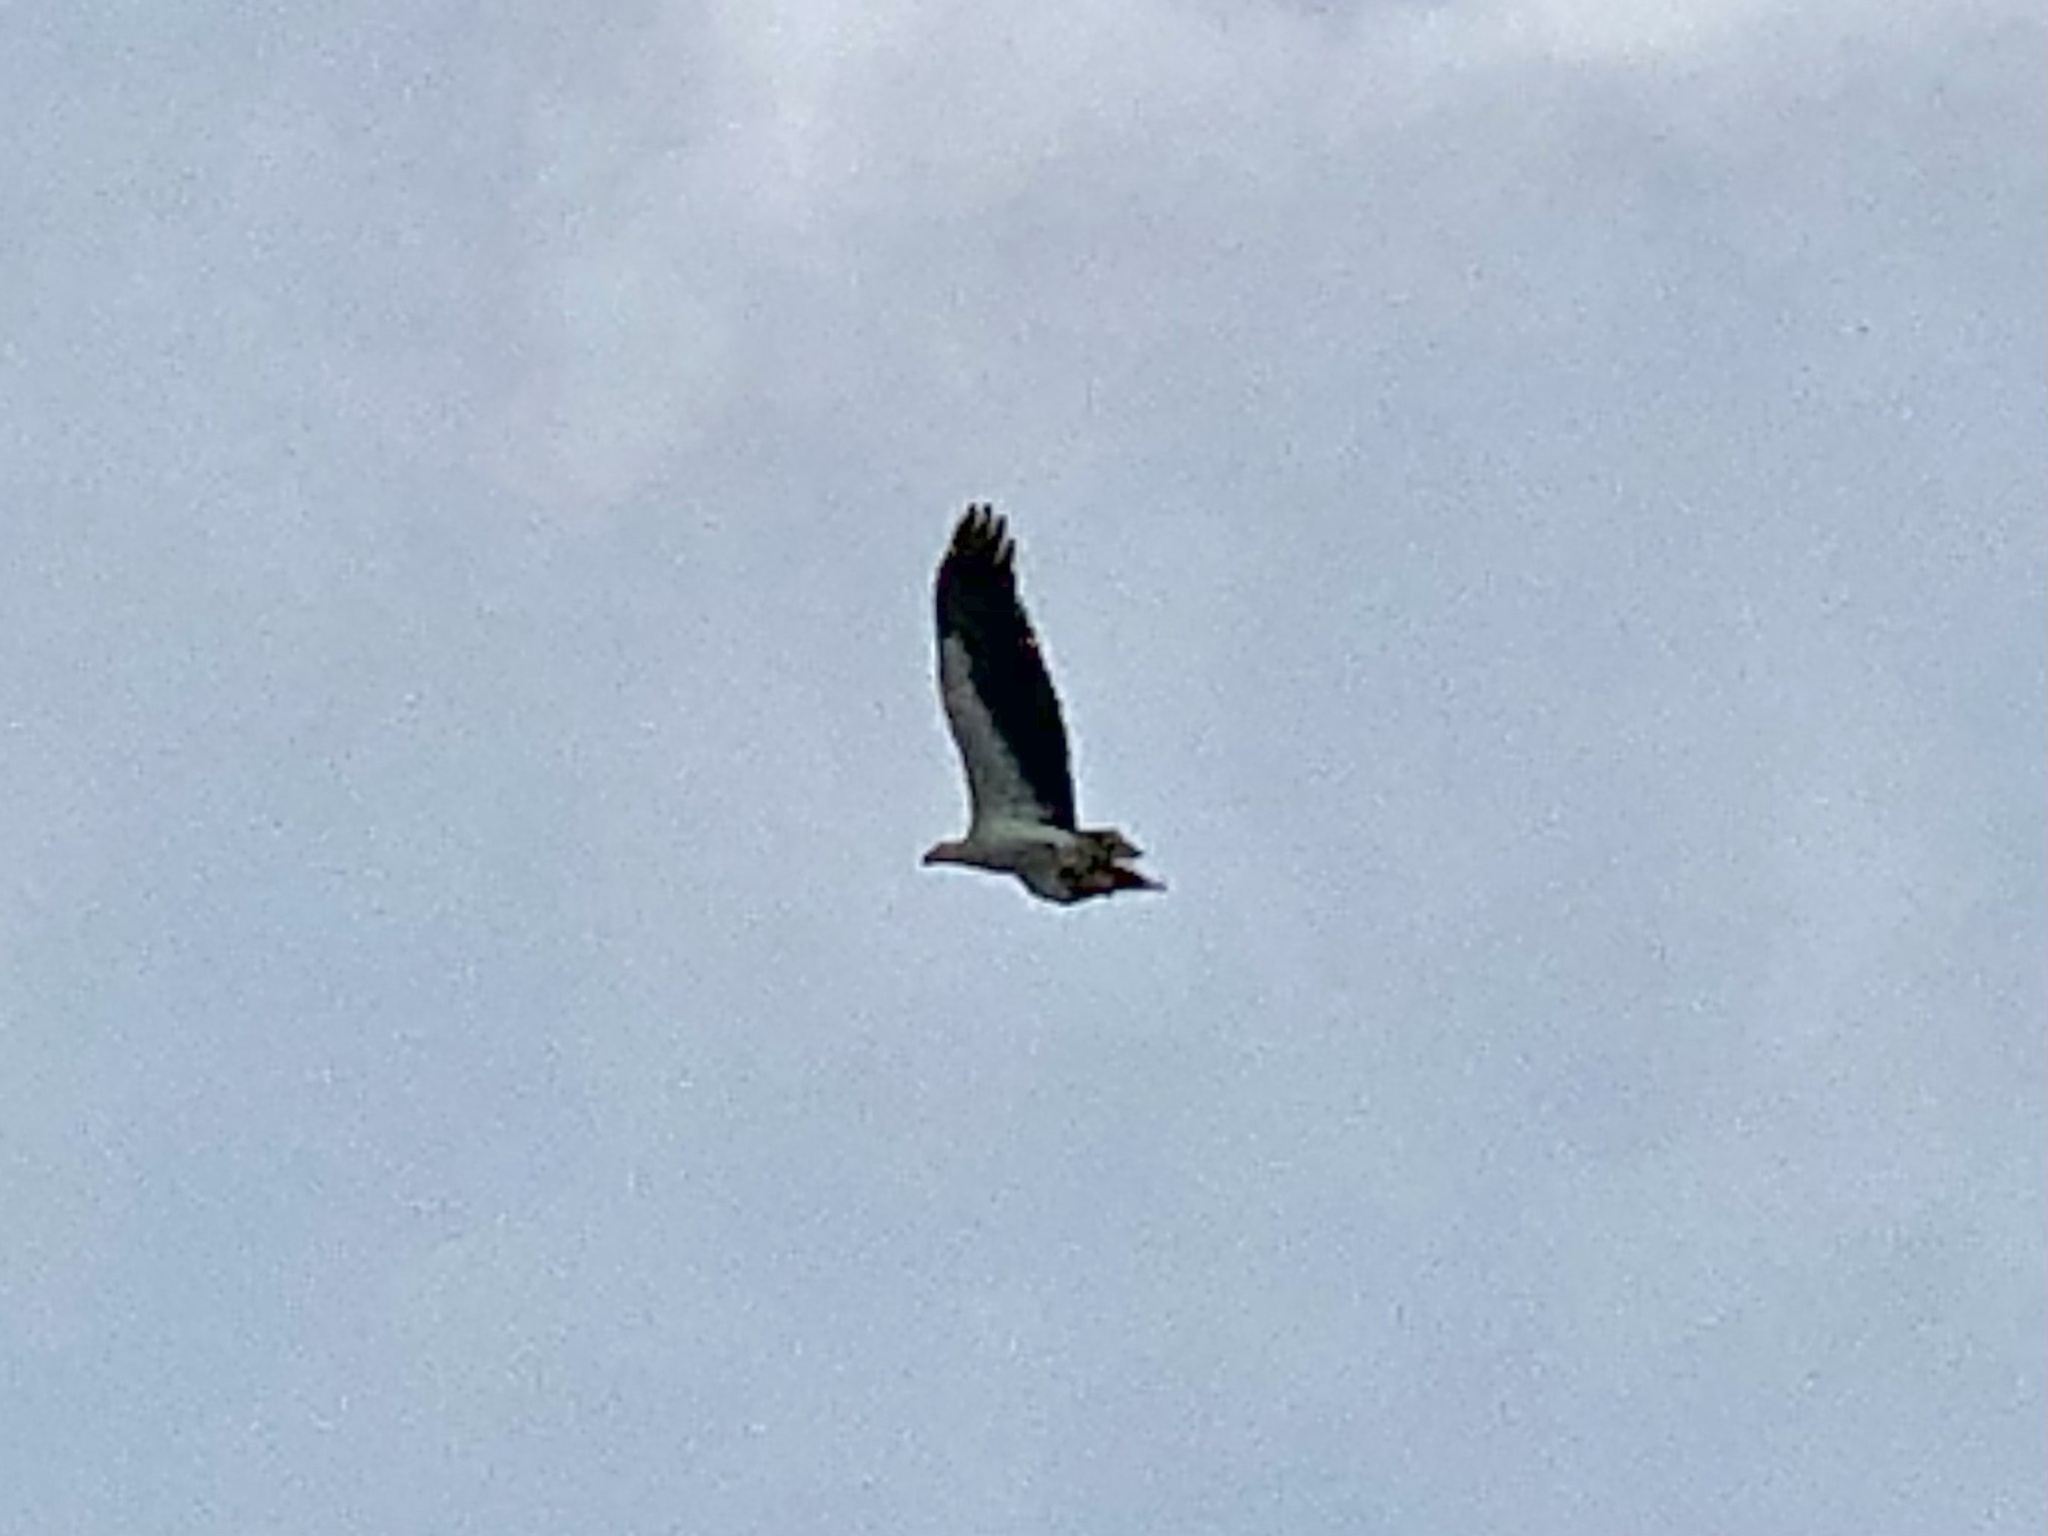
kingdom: Animalia
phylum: Chordata
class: Aves
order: Accipitriformes
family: Accipitridae
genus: Haliaeetus
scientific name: Haliaeetus leucogaster
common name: White-bellied sea eagle
